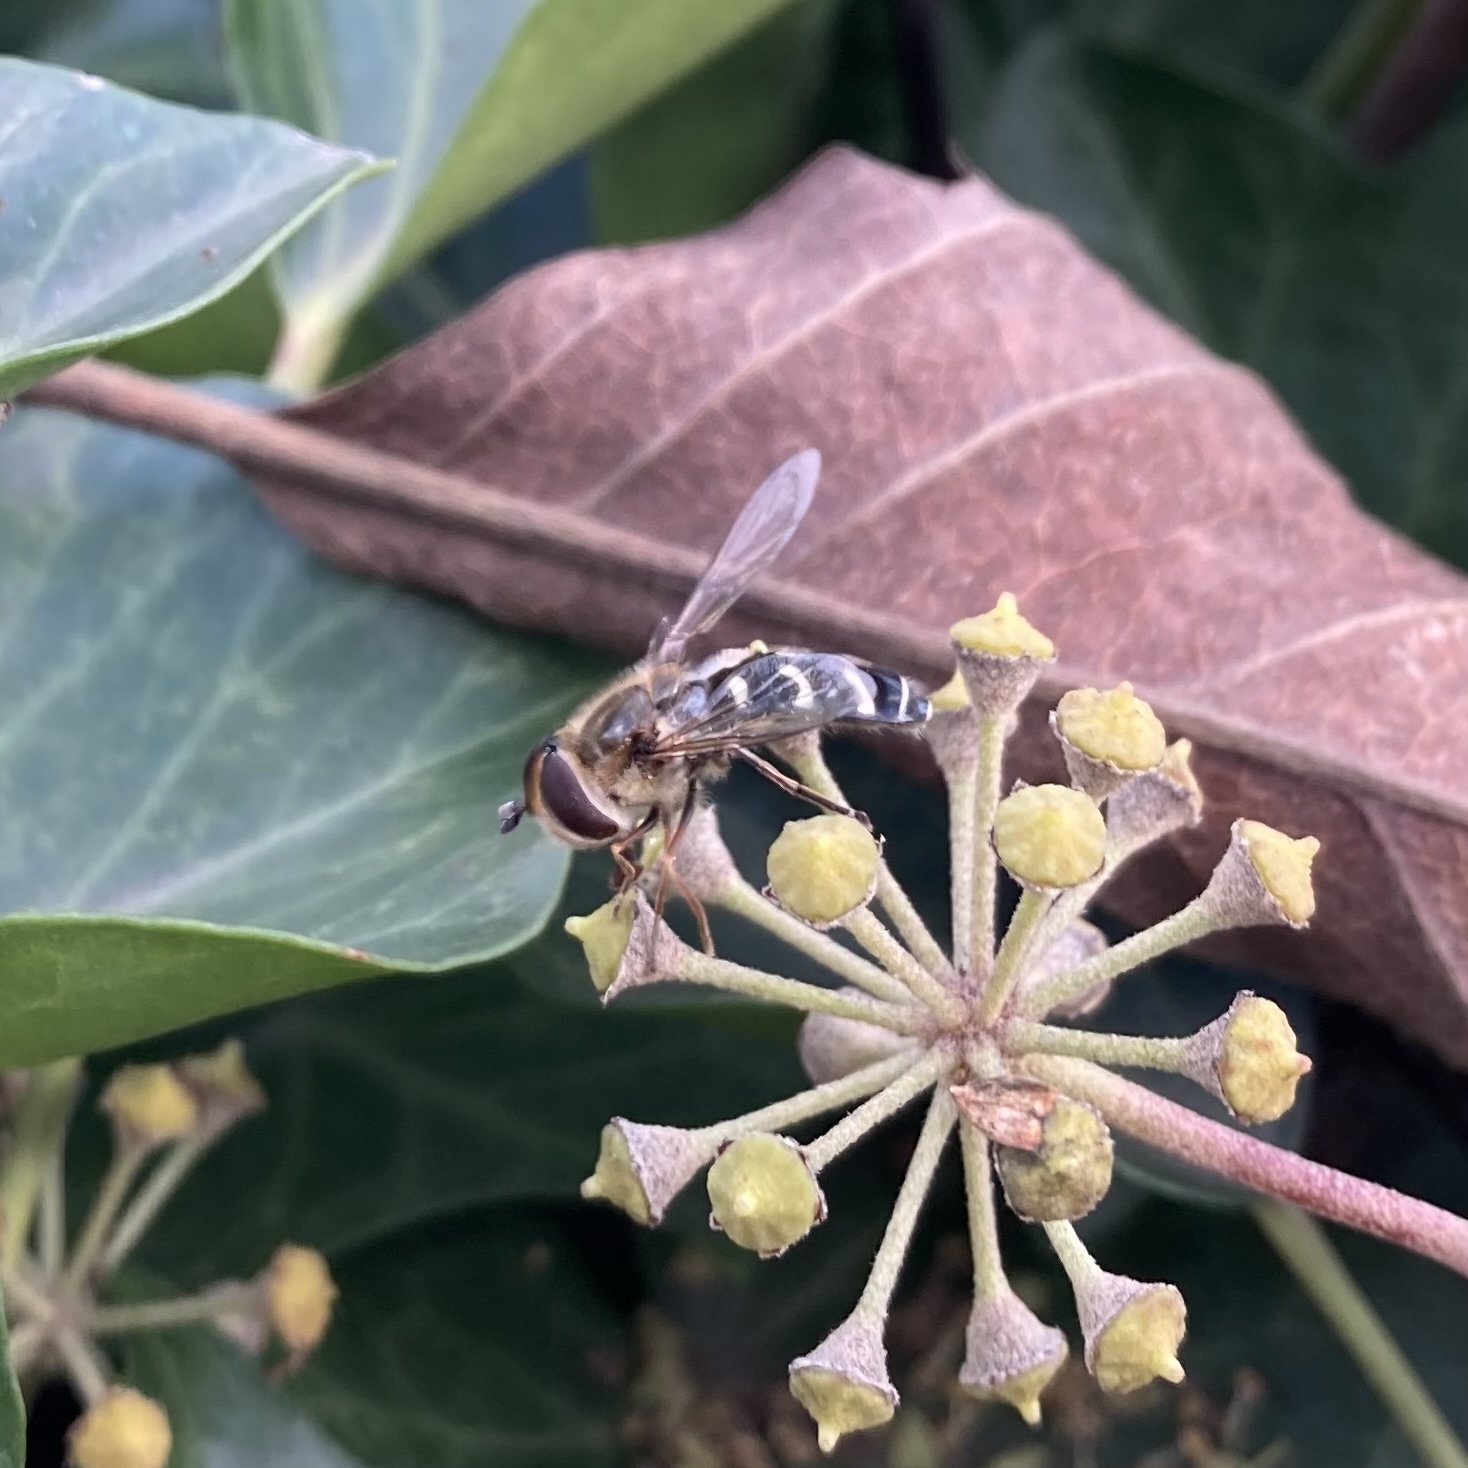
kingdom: Animalia
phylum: Arthropoda
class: Insecta
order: Diptera
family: Syrphidae
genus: Scaeva
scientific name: Scaeva pyrastri
